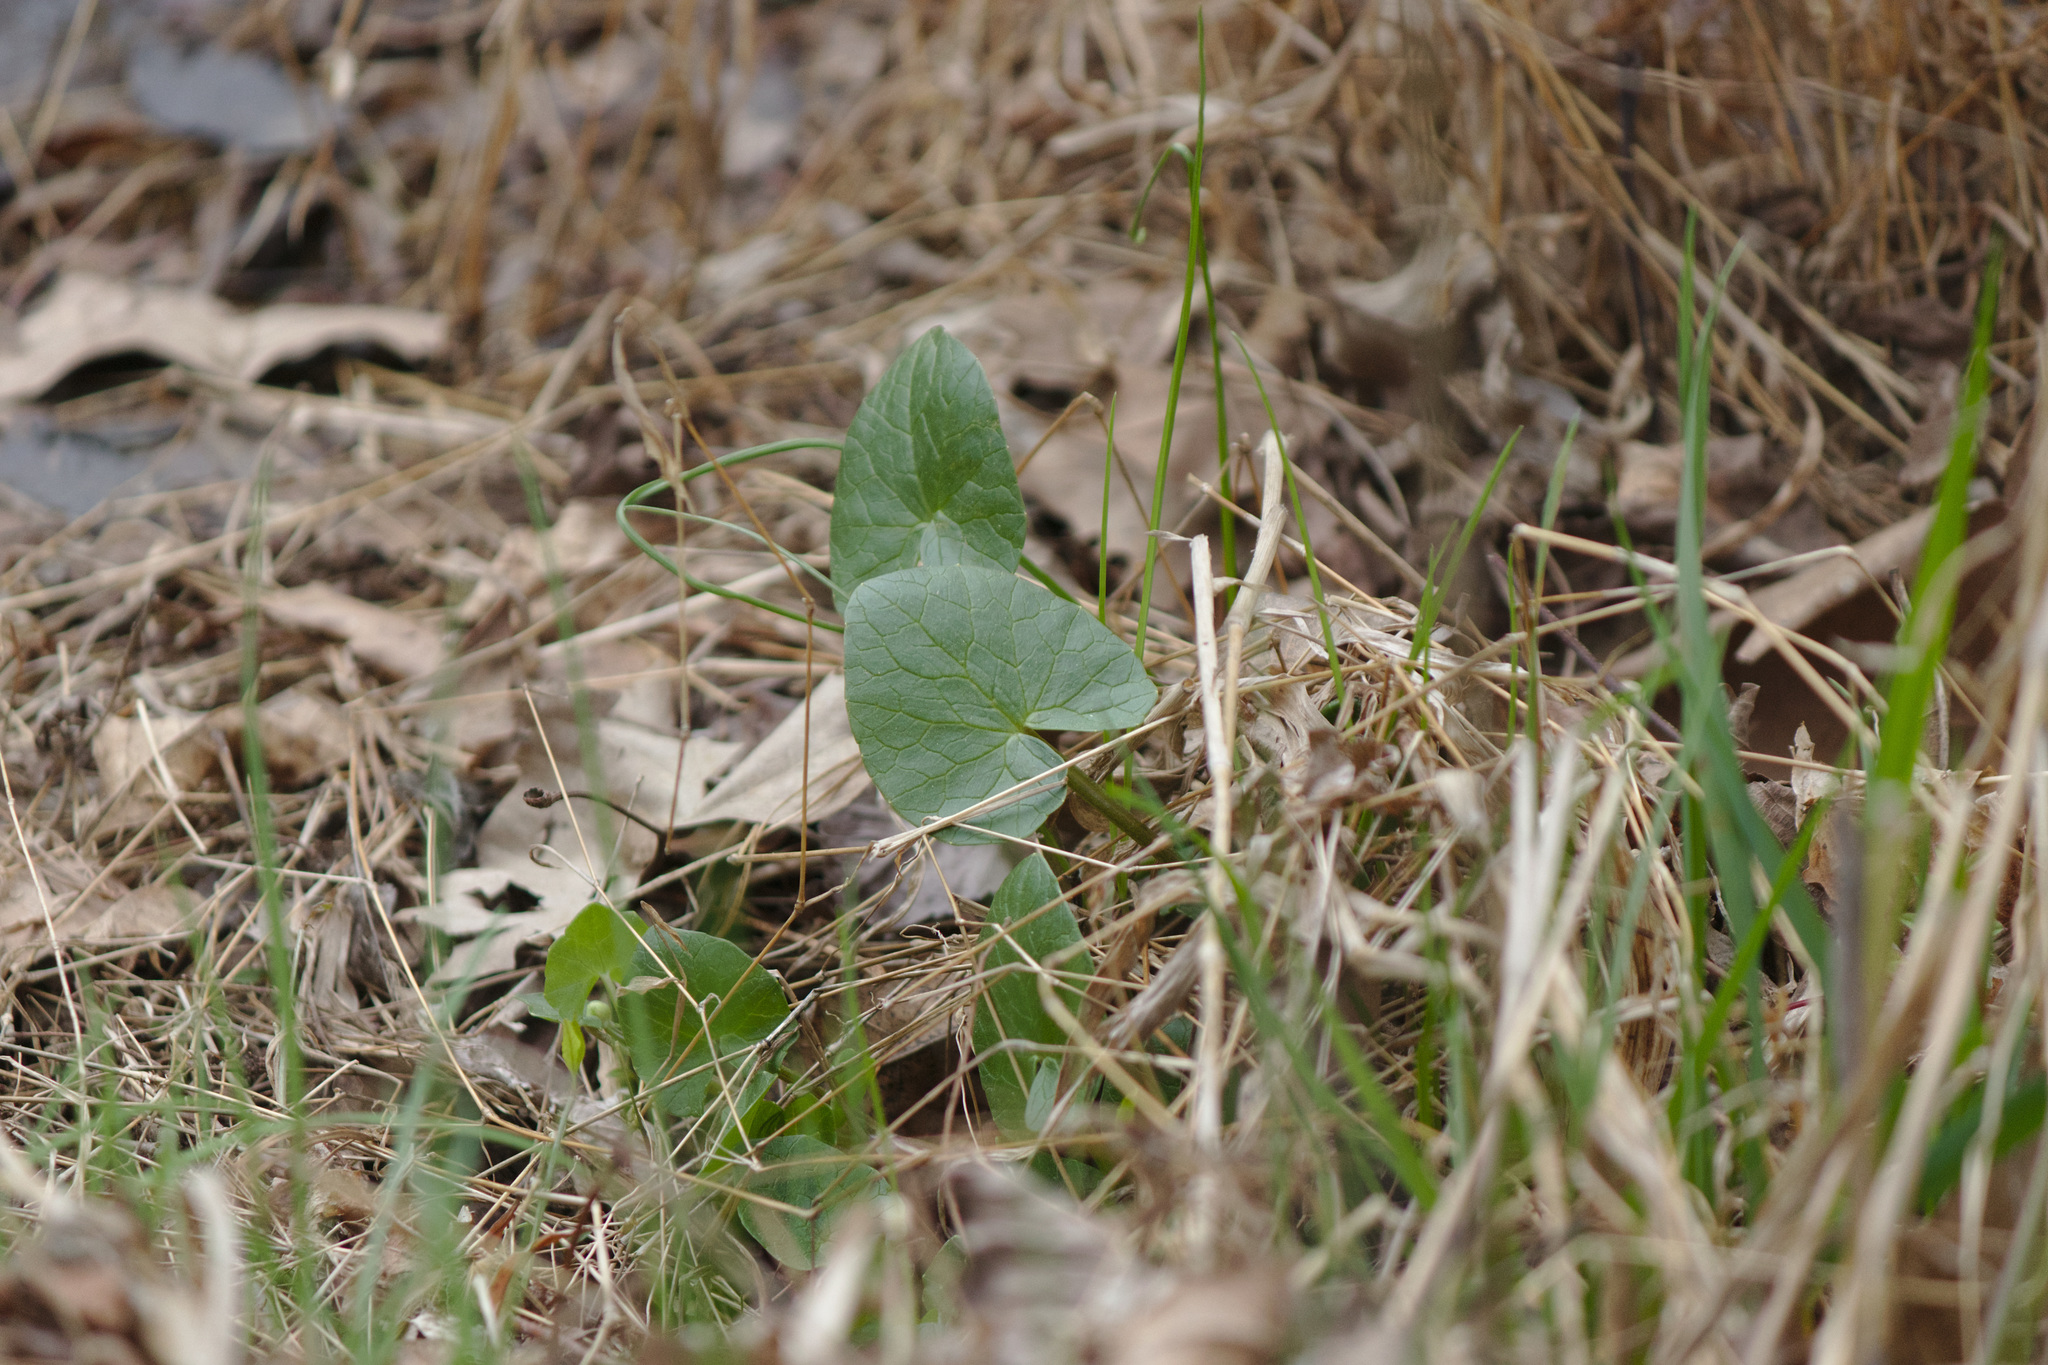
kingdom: Plantae
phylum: Tracheophyta
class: Magnoliopsida
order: Ranunculales
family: Ranunculaceae
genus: Ficaria
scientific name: Ficaria verna
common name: Lesser celandine
